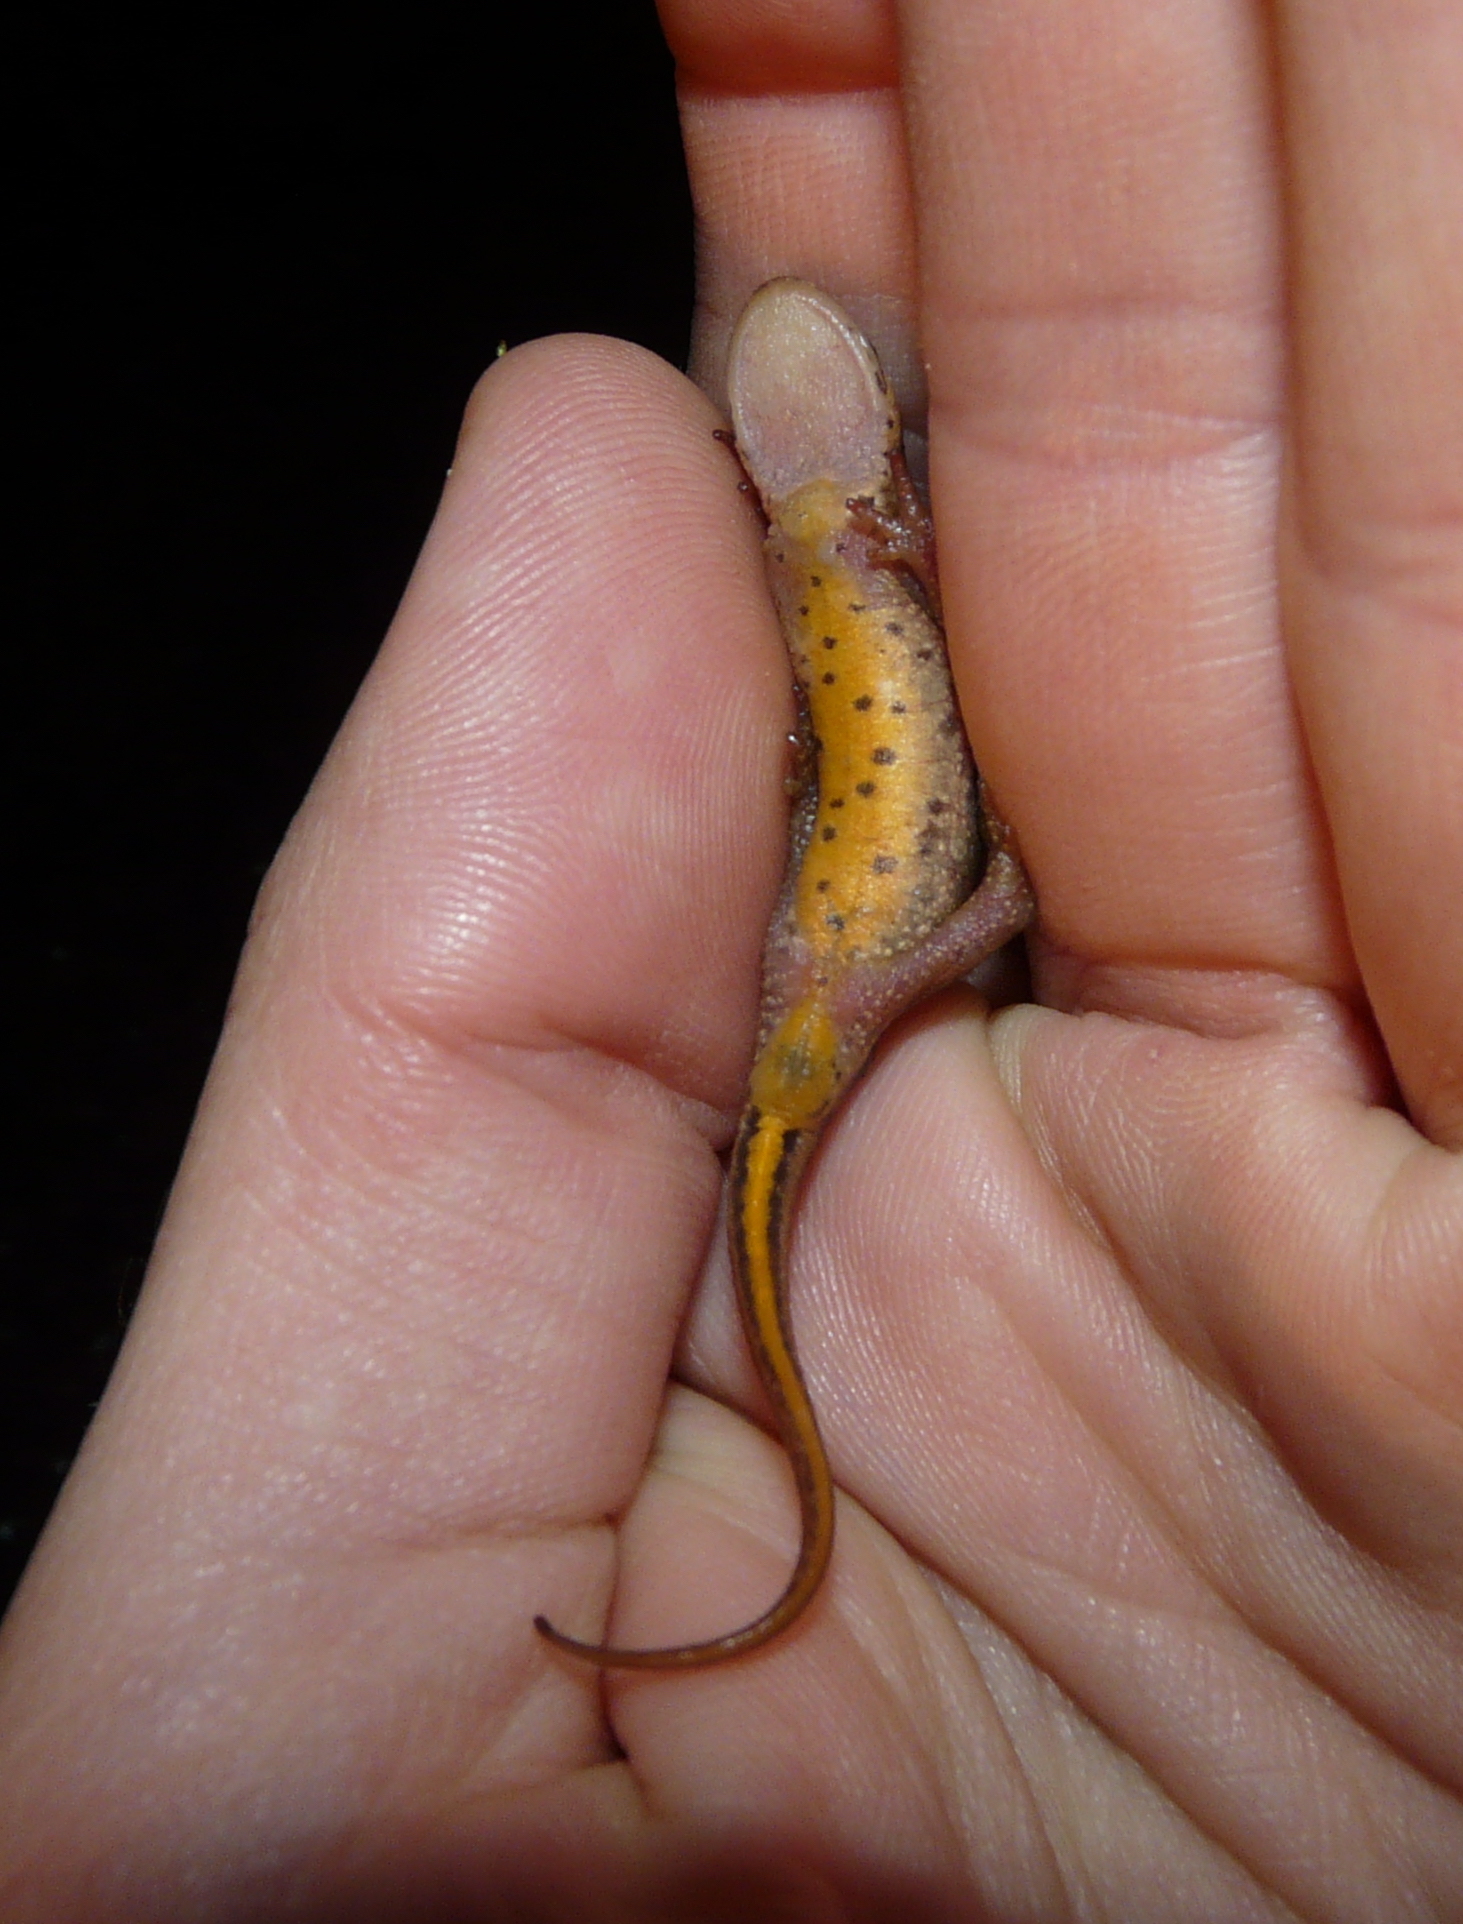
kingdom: Animalia
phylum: Chordata
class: Amphibia
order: Caudata
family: Salamandridae
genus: Lissotriton
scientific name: Lissotriton helveticus
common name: Palmate newt
